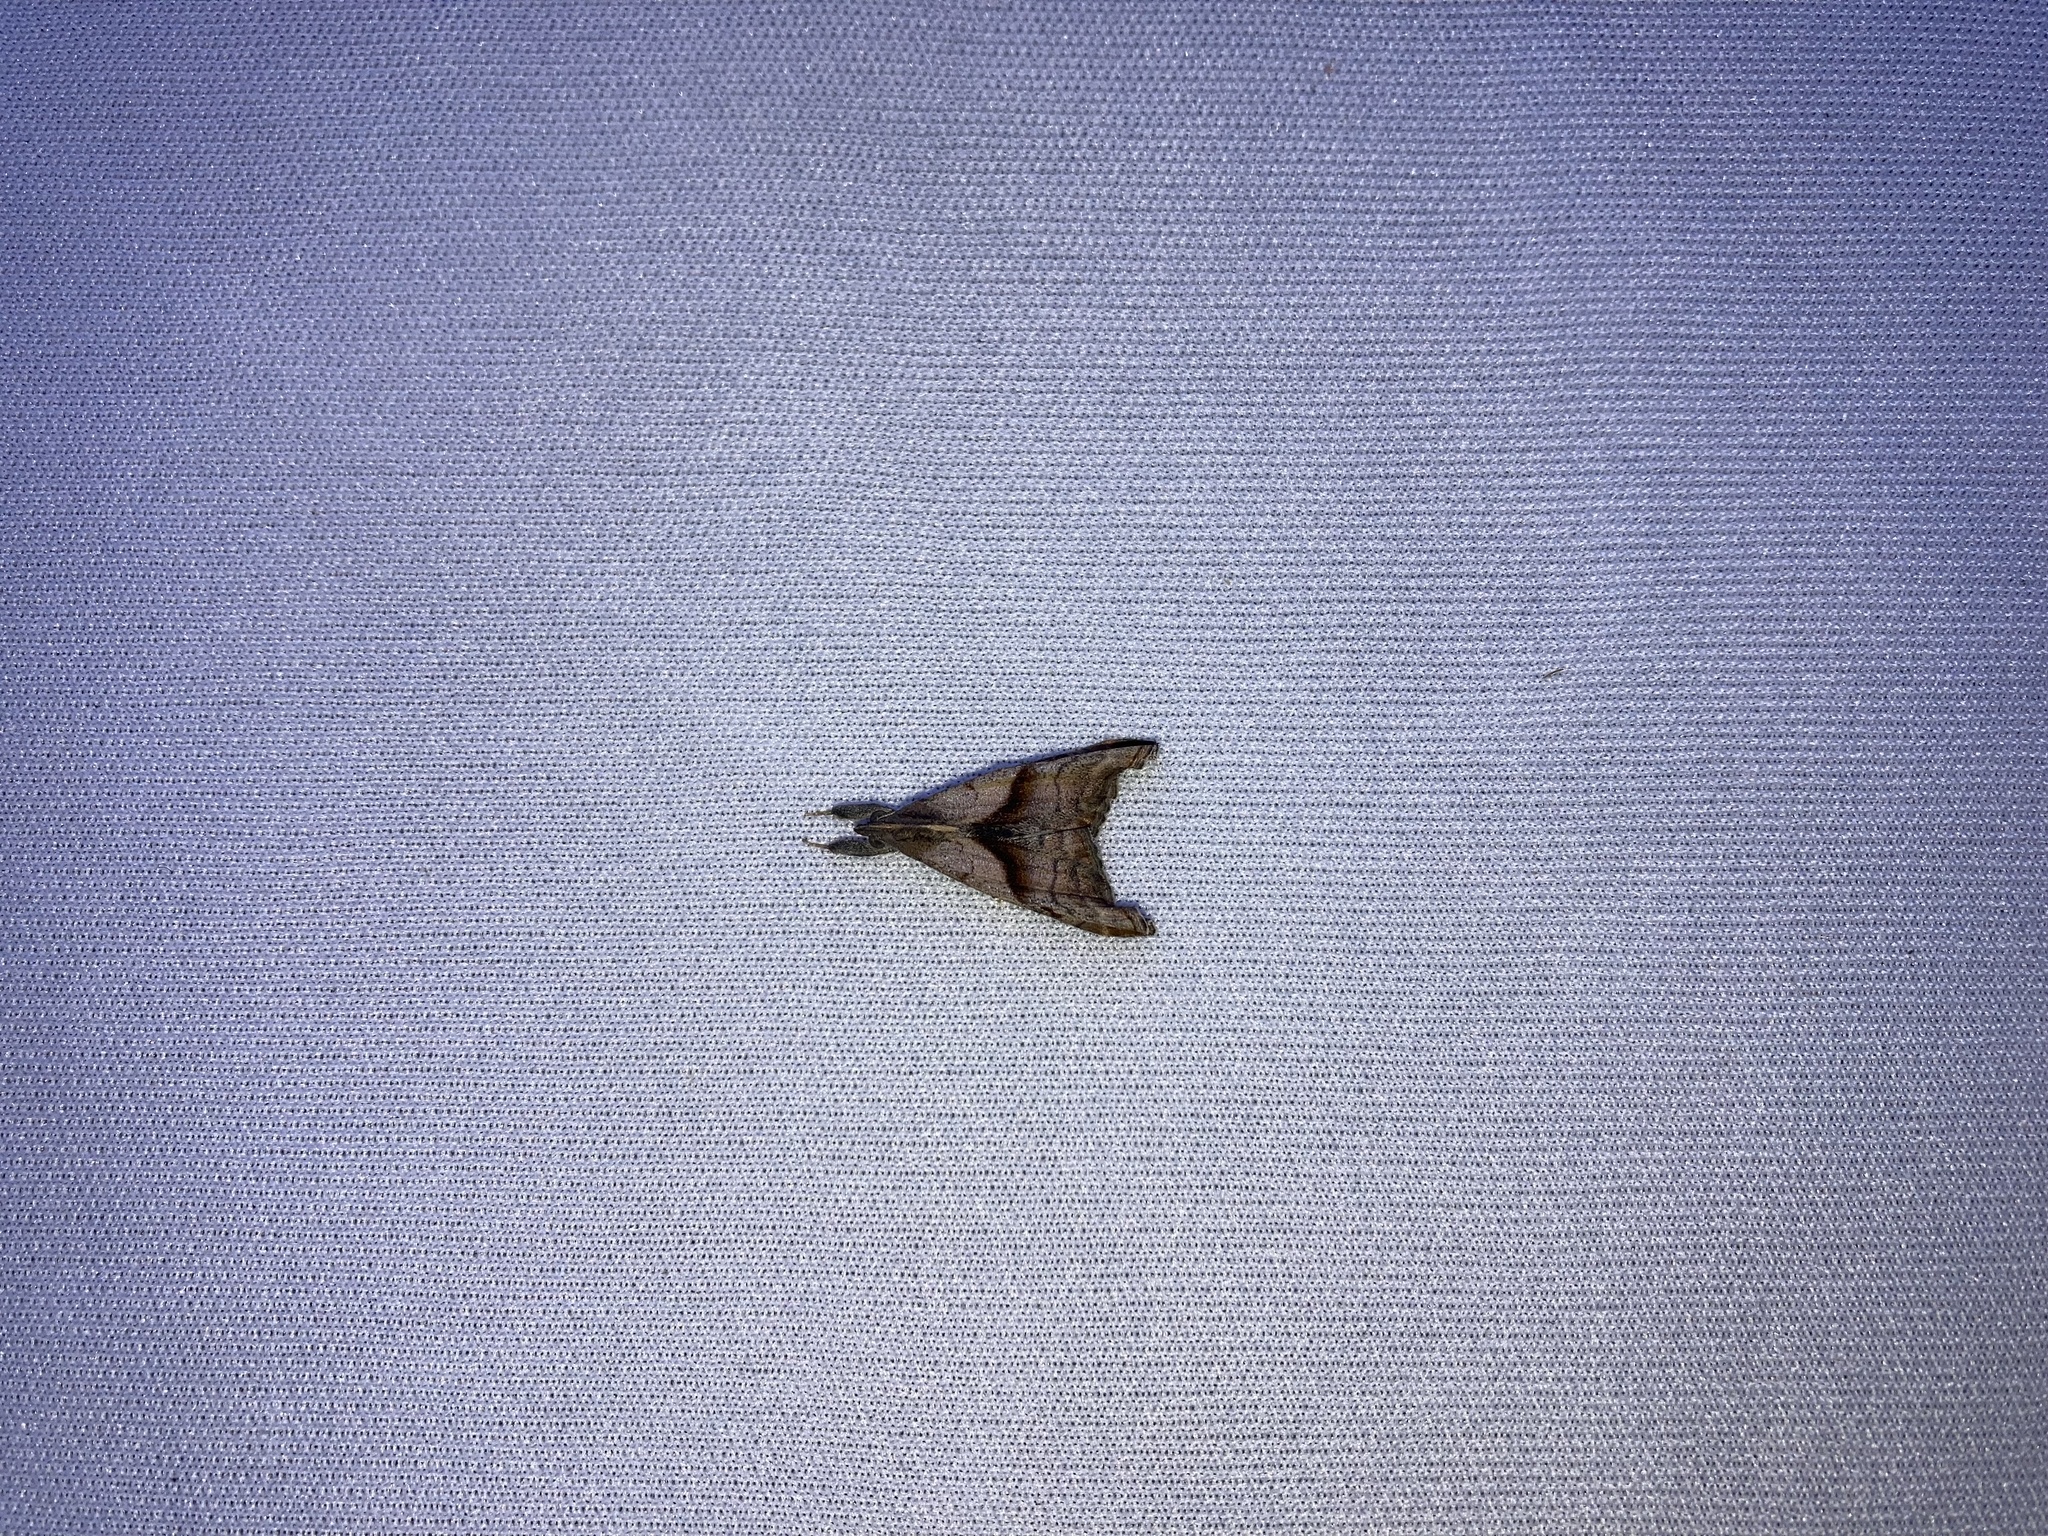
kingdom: Animalia
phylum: Arthropoda
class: Insecta
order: Lepidoptera
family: Erebidae
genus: Palthis
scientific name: Palthis angulalis
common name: Dark-spotted palthis moth
